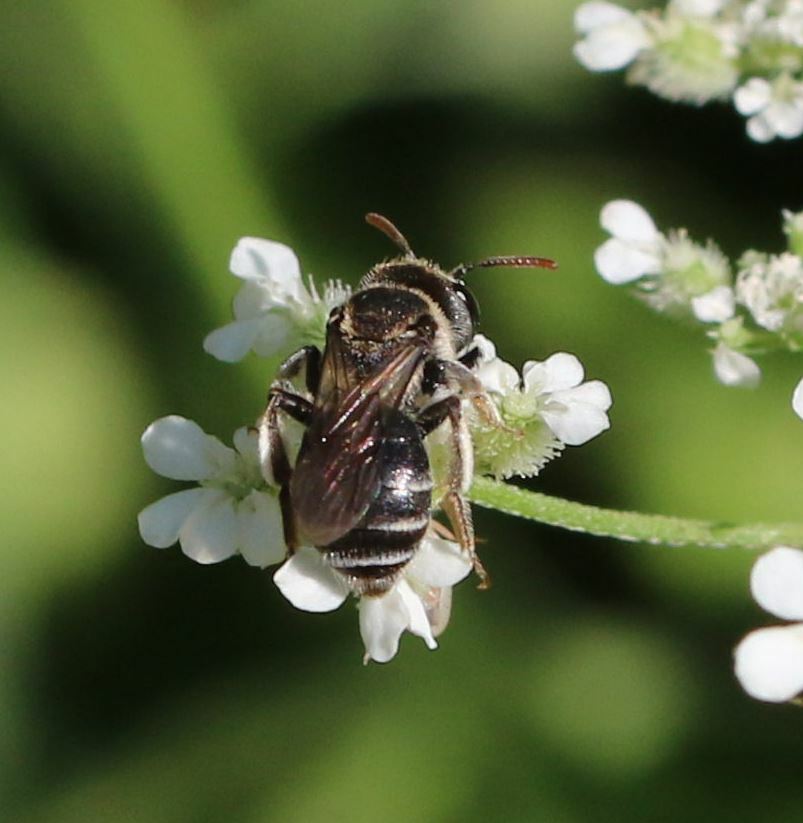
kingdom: Animalia
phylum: Arthropoda
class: Insecta
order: Hymenoptera
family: Andrenidae
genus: Andrena
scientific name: Andrena colletiformis
